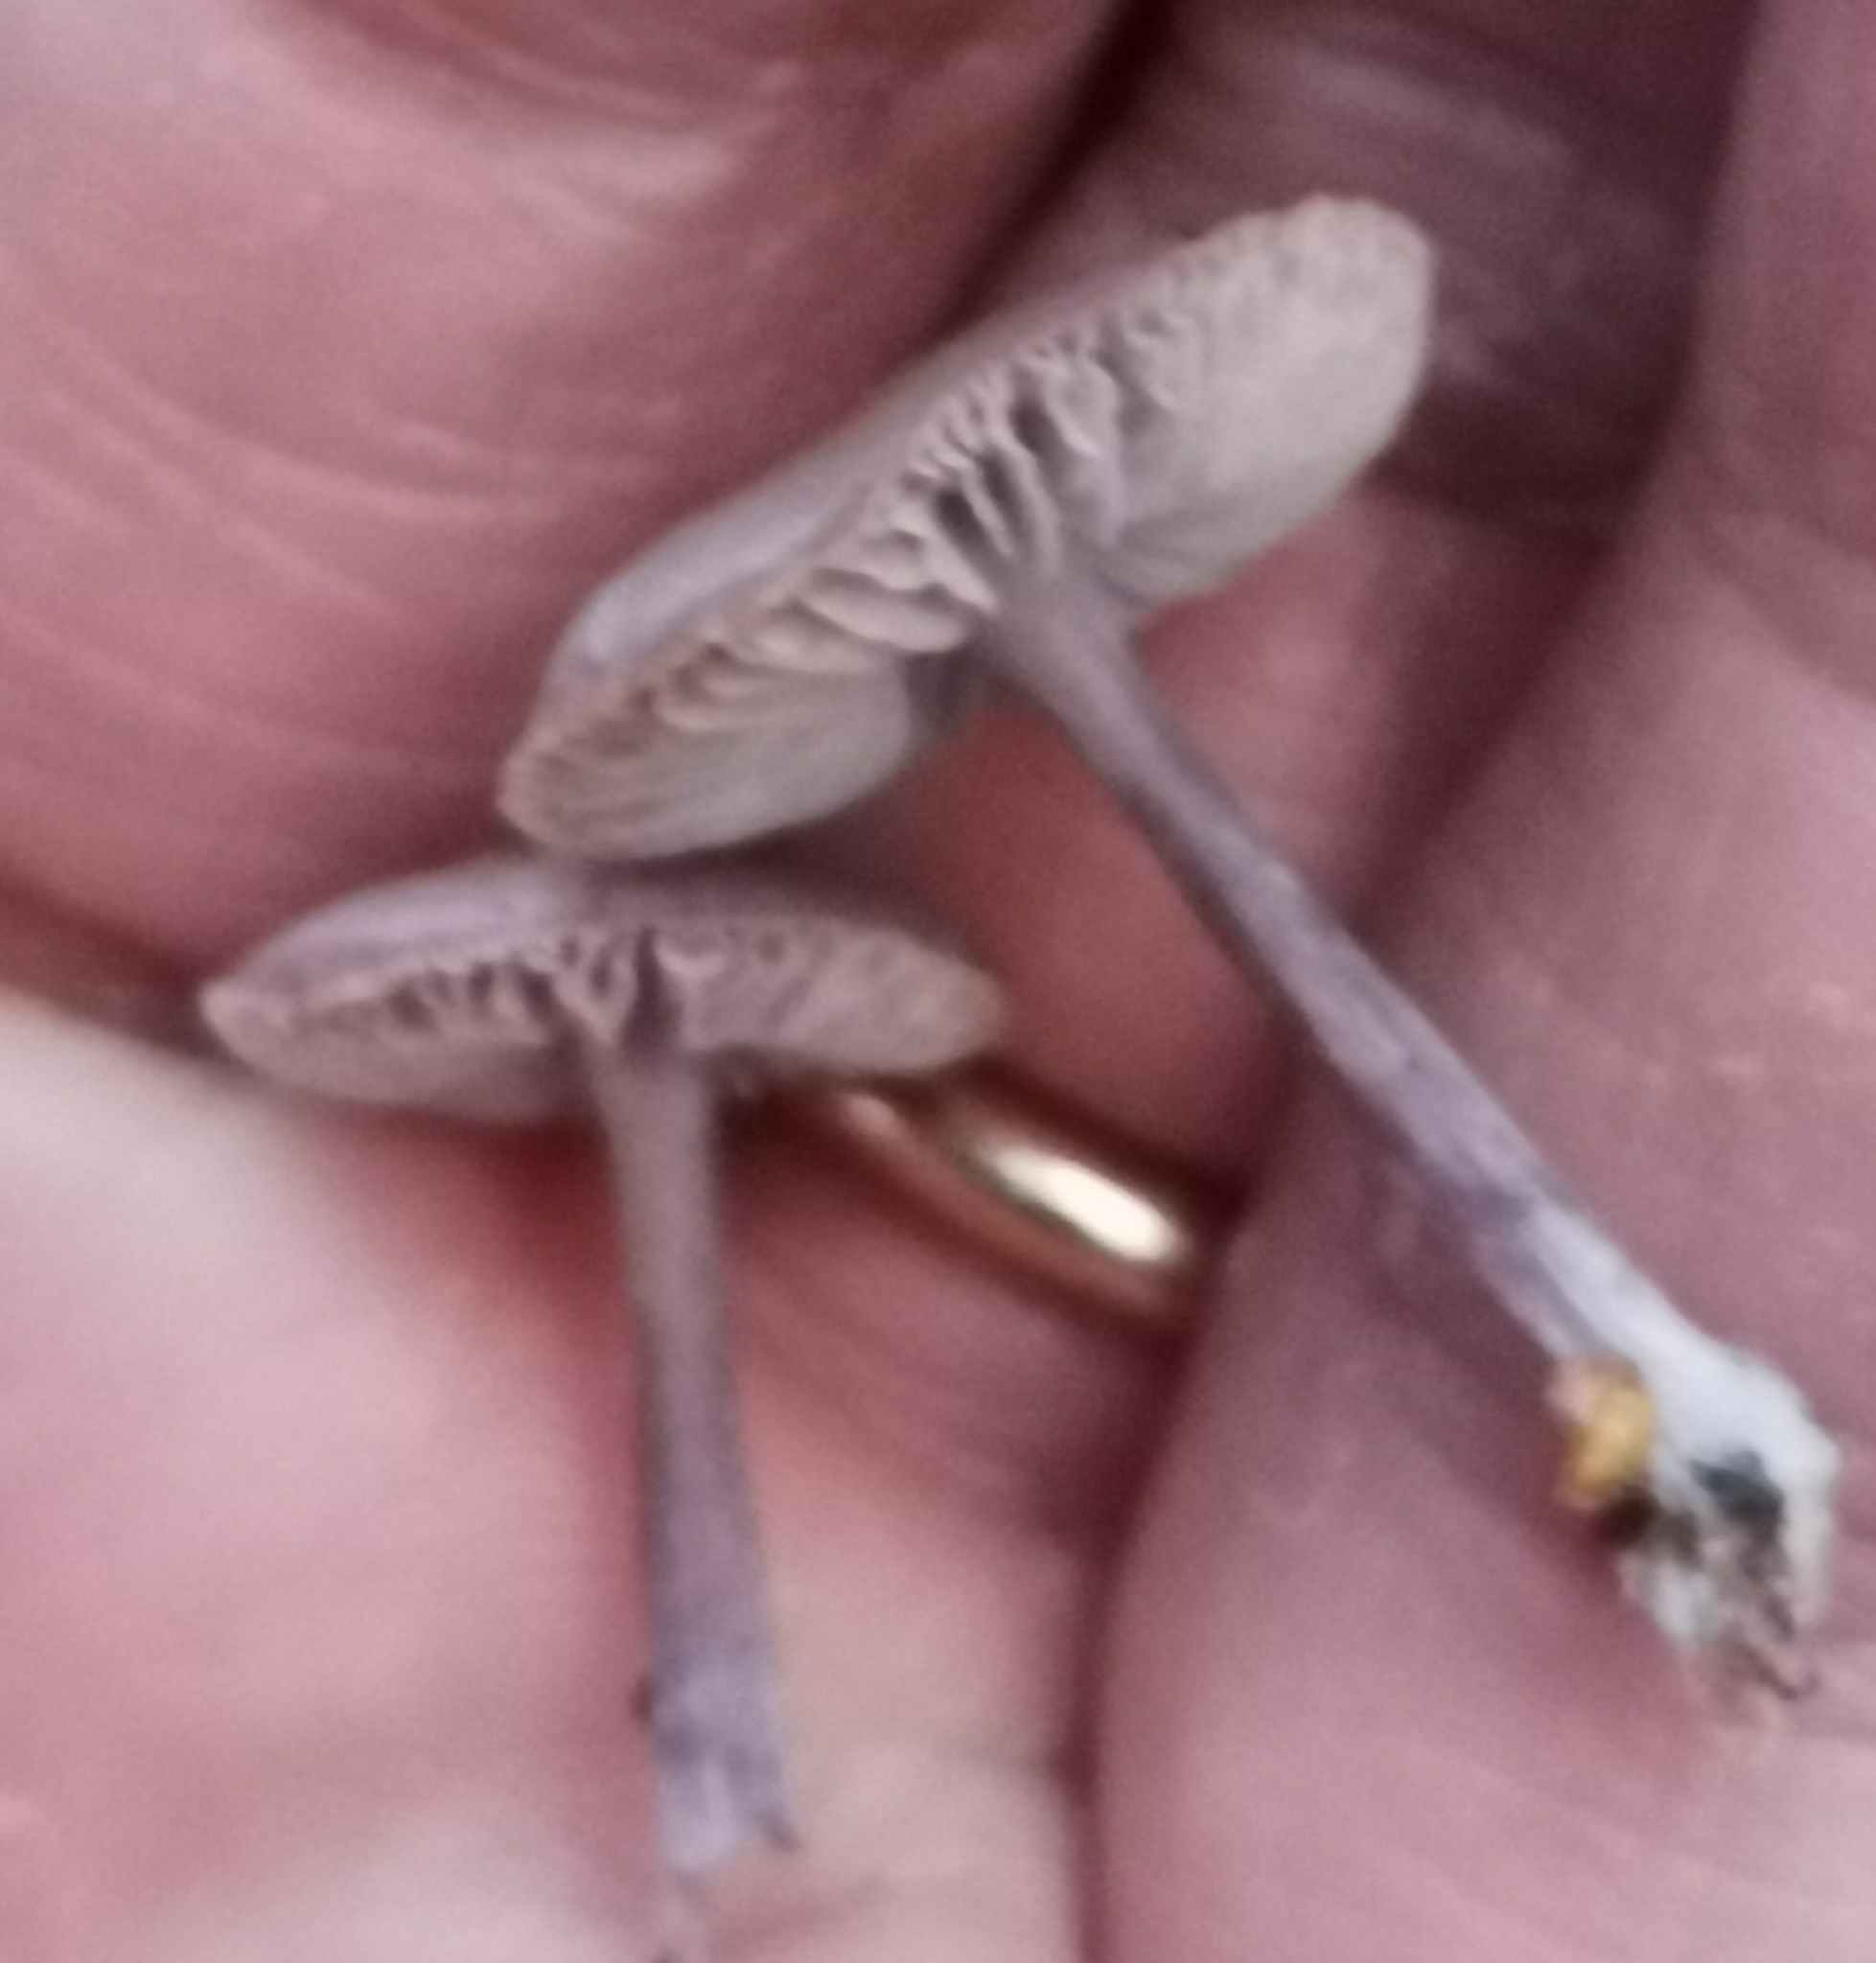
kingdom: Fungi
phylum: Basidiomycota
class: Agaricomycetes
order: Agaricales
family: Mycenaceae
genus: Mycena
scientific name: Mycena pura
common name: Lilac bonnet
